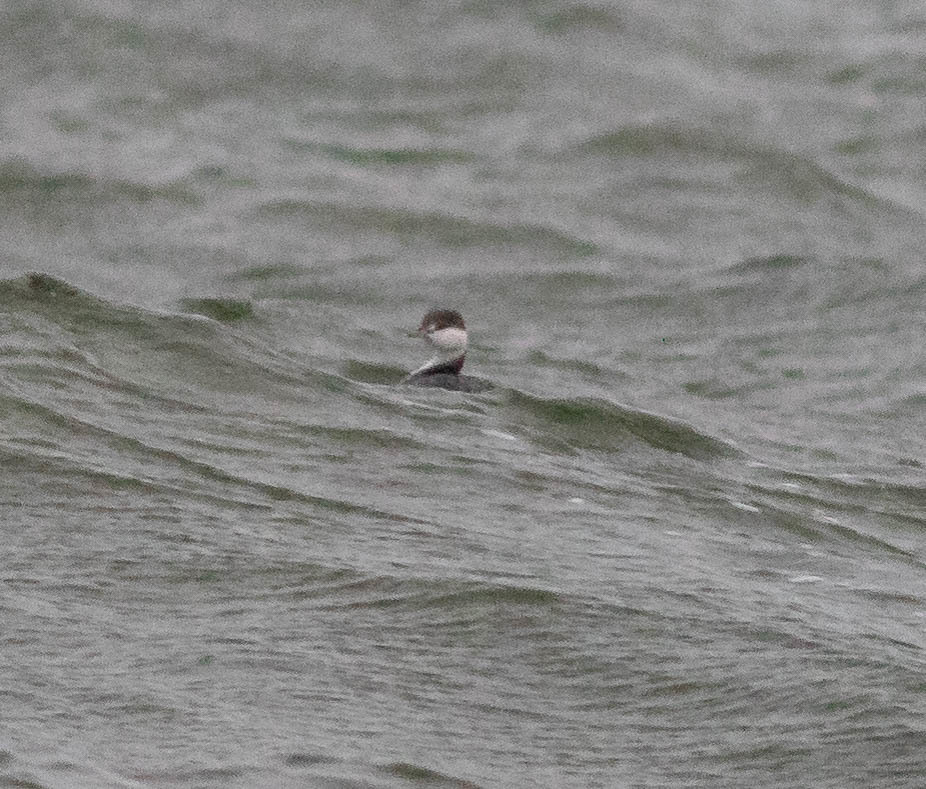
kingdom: Animalia
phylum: Chordata
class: Aves
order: Podicipediformes
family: Podicipedidae
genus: Podiceps
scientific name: Podiceps auritus
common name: Horned grebe
